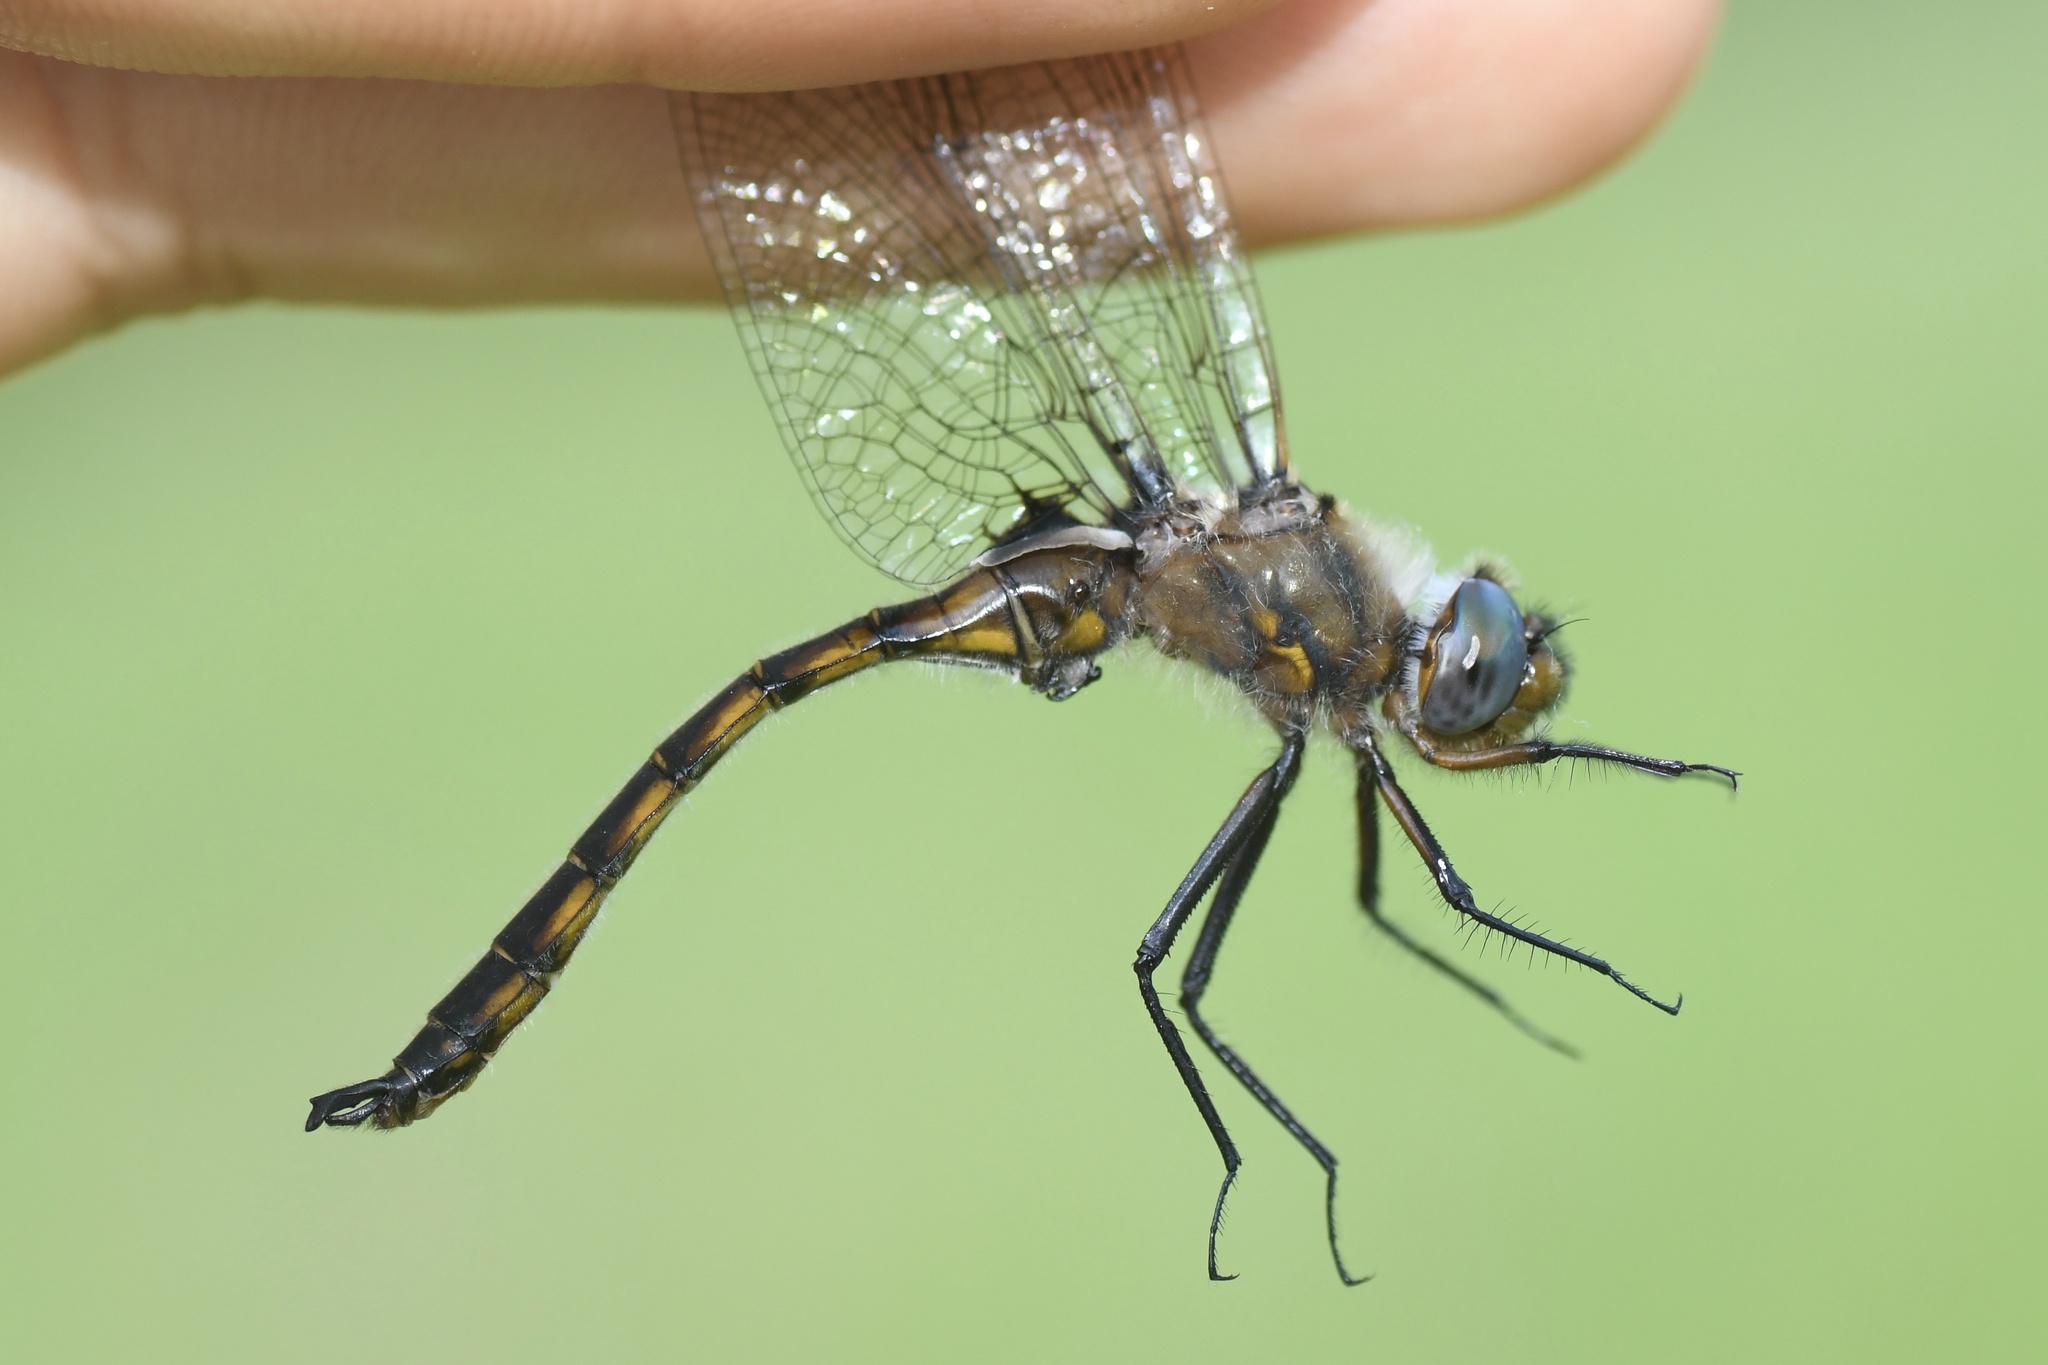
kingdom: Animalia
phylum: Arthropoda
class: Insecta
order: Odonata
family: Corduliidae
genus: Epitheca
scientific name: Epitheca canis
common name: Beaverpond baskettail
